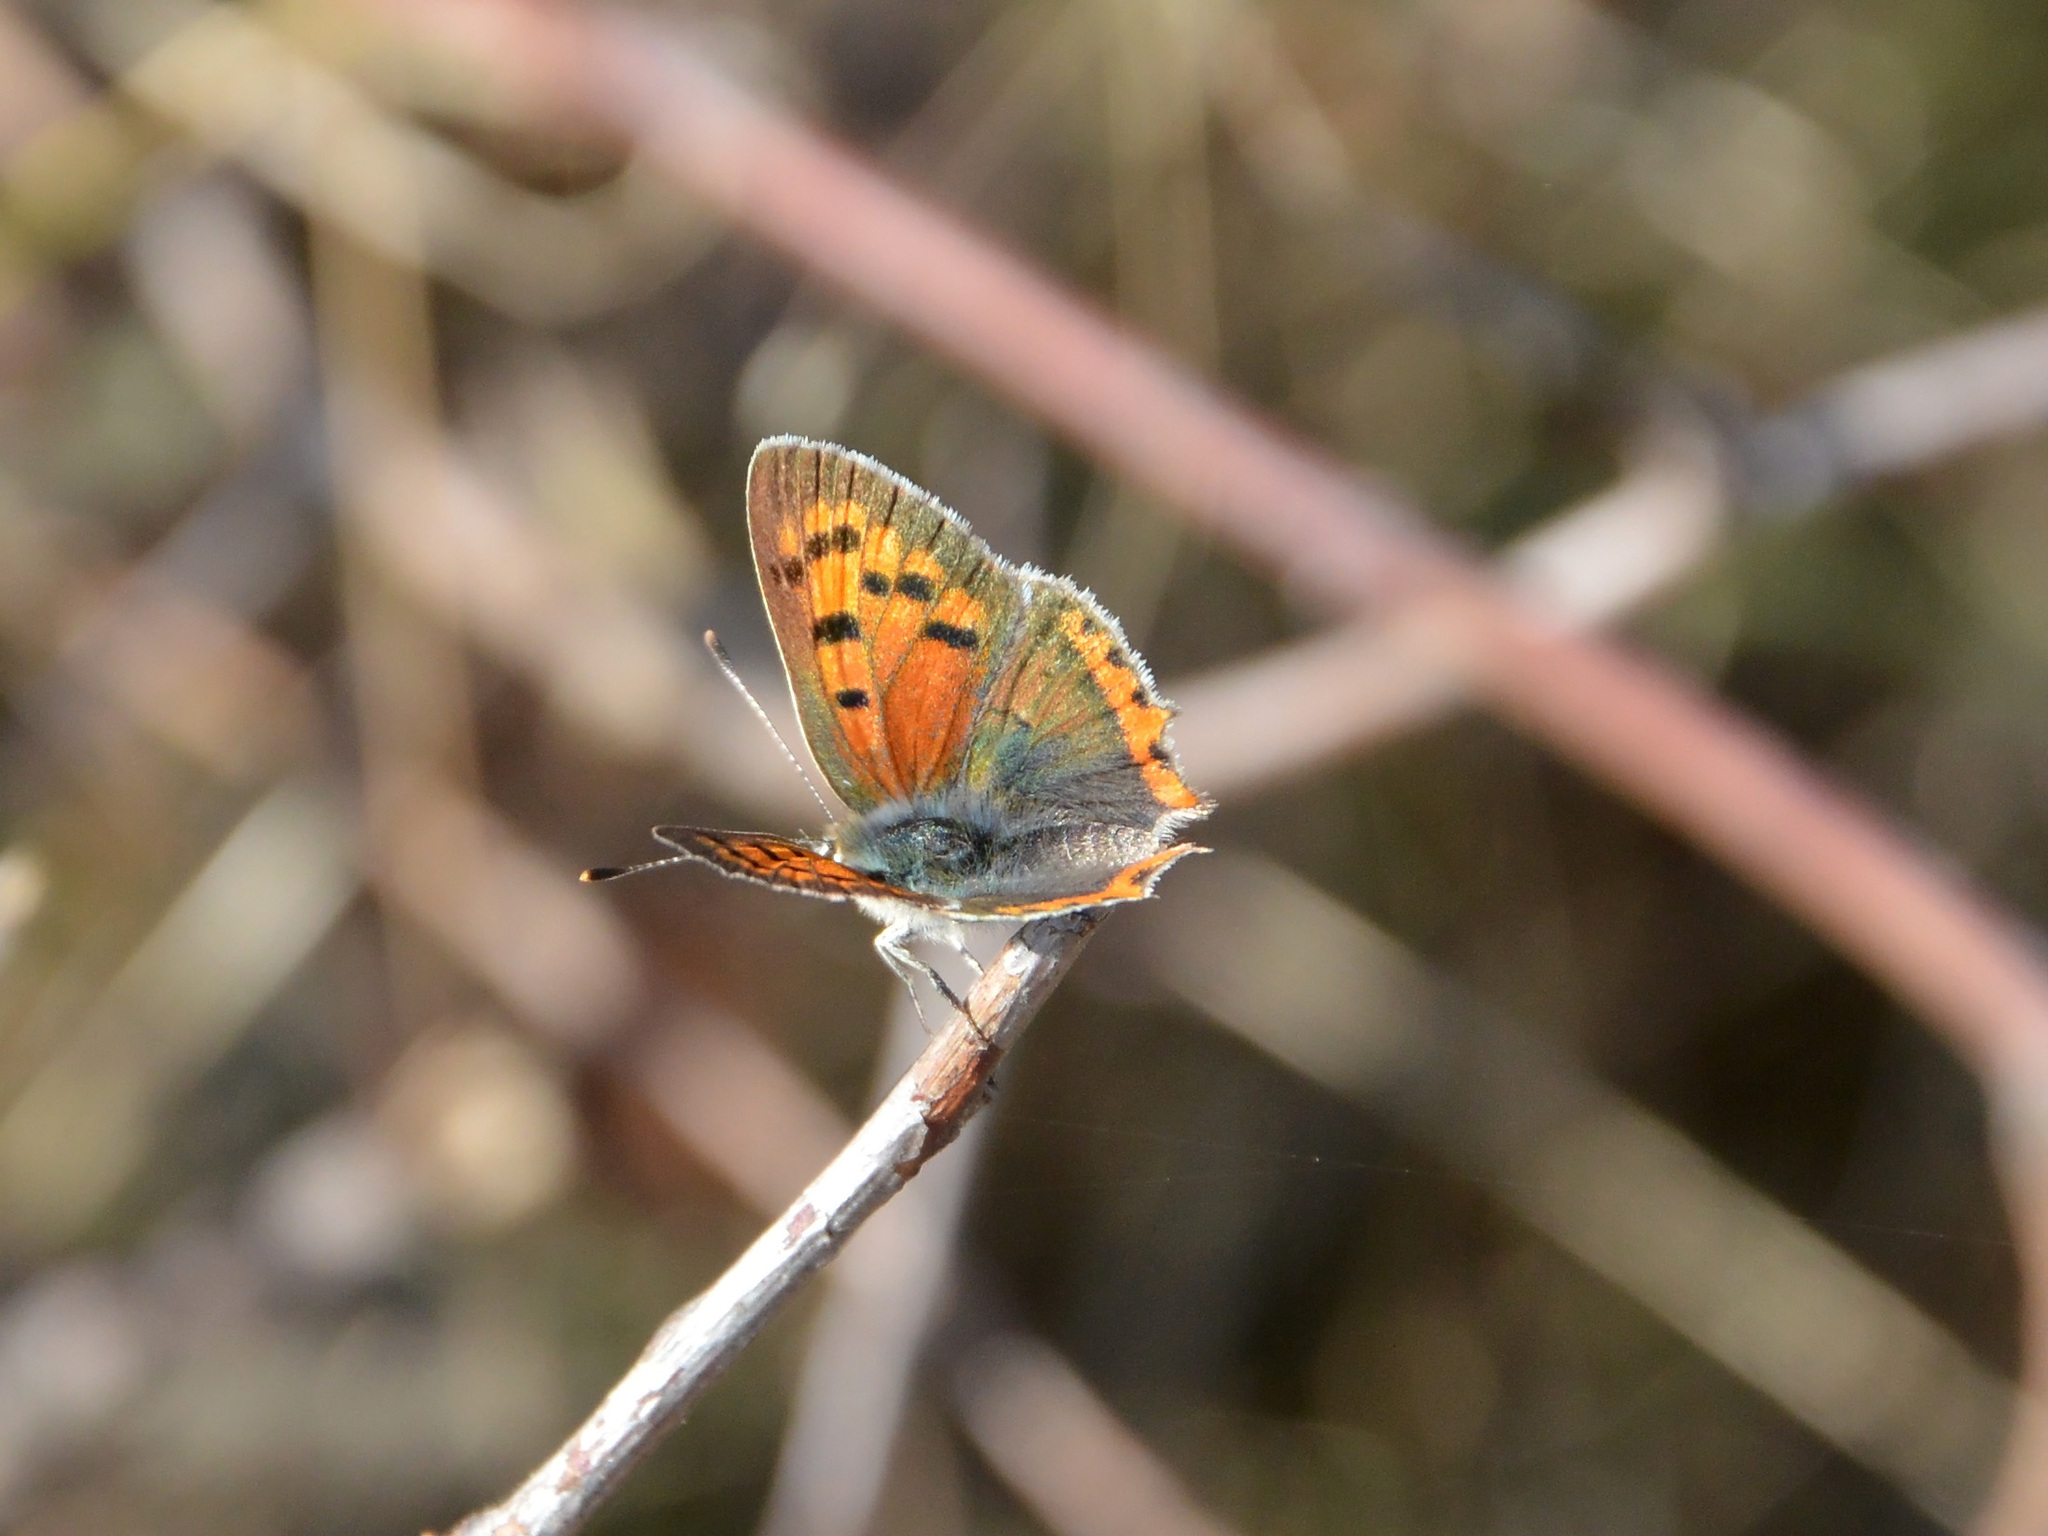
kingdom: Animalia
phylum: Arthropoda
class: Insecta
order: Lepidoptera
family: Lycaenidae
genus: Lycaena
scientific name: Lycaena phlaeas
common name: Small copper
